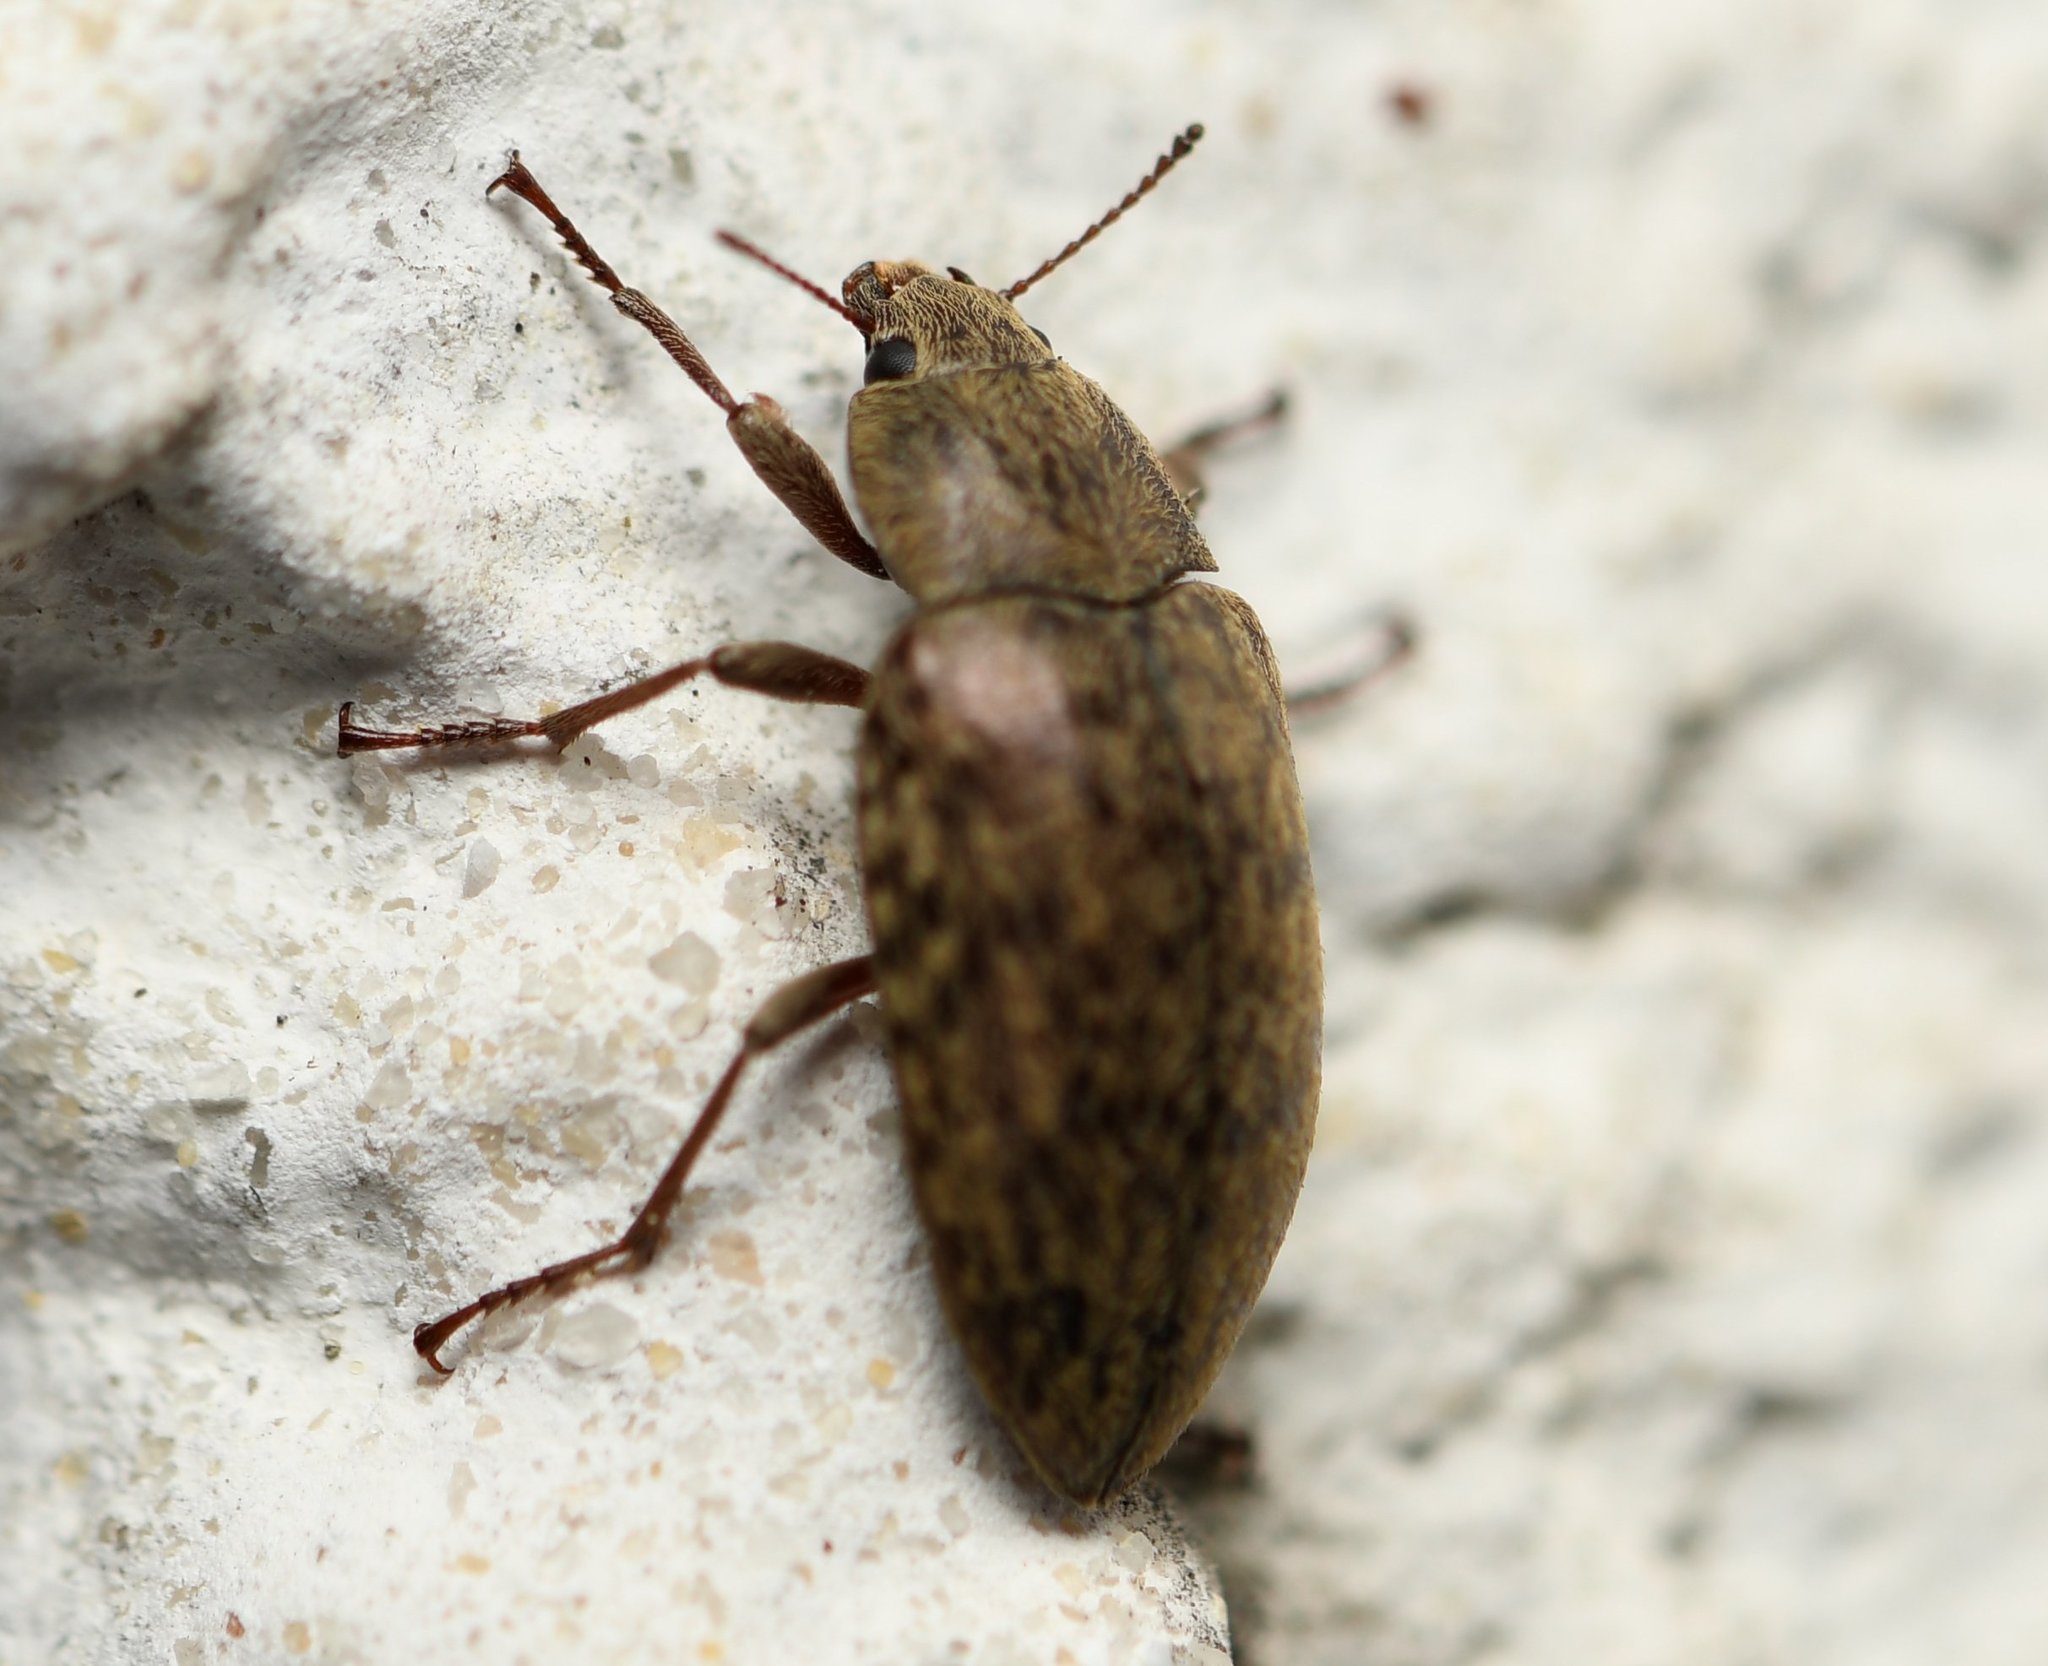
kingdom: Animalia
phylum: Arthropoda
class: Insecta
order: Coleoptera
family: Tenebrionidae
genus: Epitragodes
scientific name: Epitragodes tomentosus
